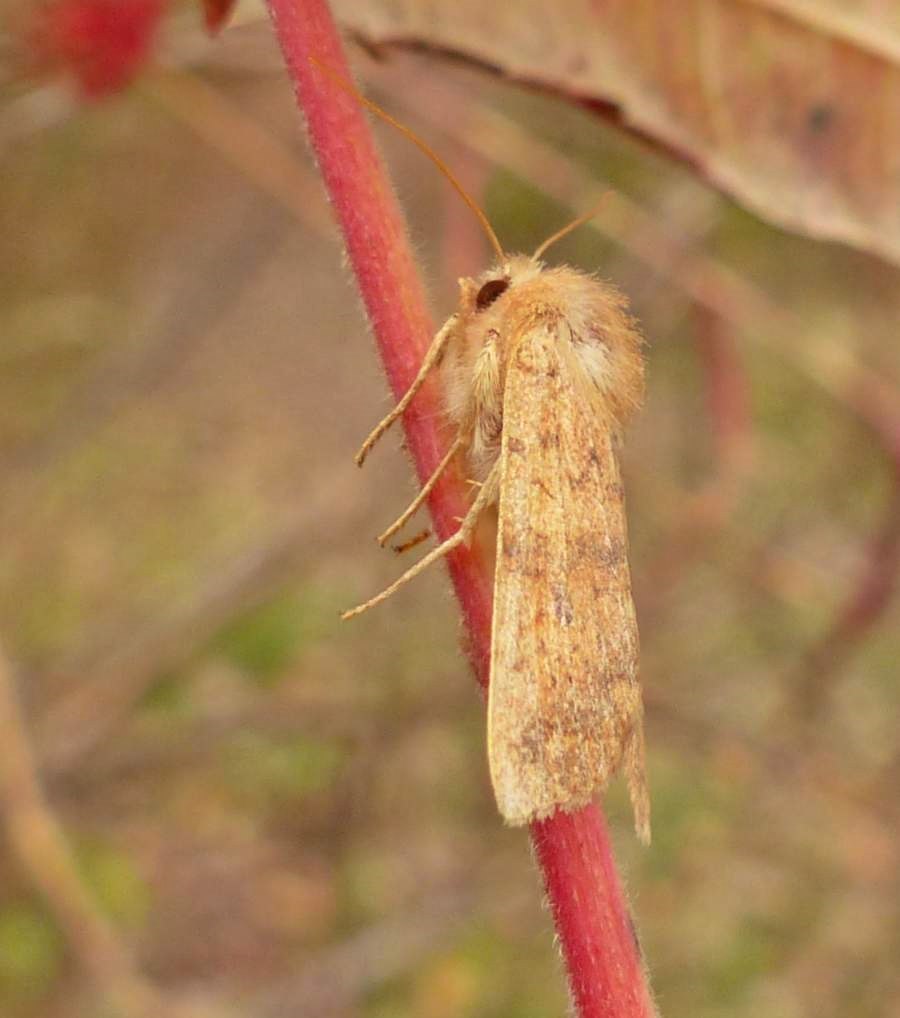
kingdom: Animalia
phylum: Arthropoda
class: Insecta
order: Lepidoptera
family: Noctuidae
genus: Agrochola
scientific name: Agrochola bicolorago
